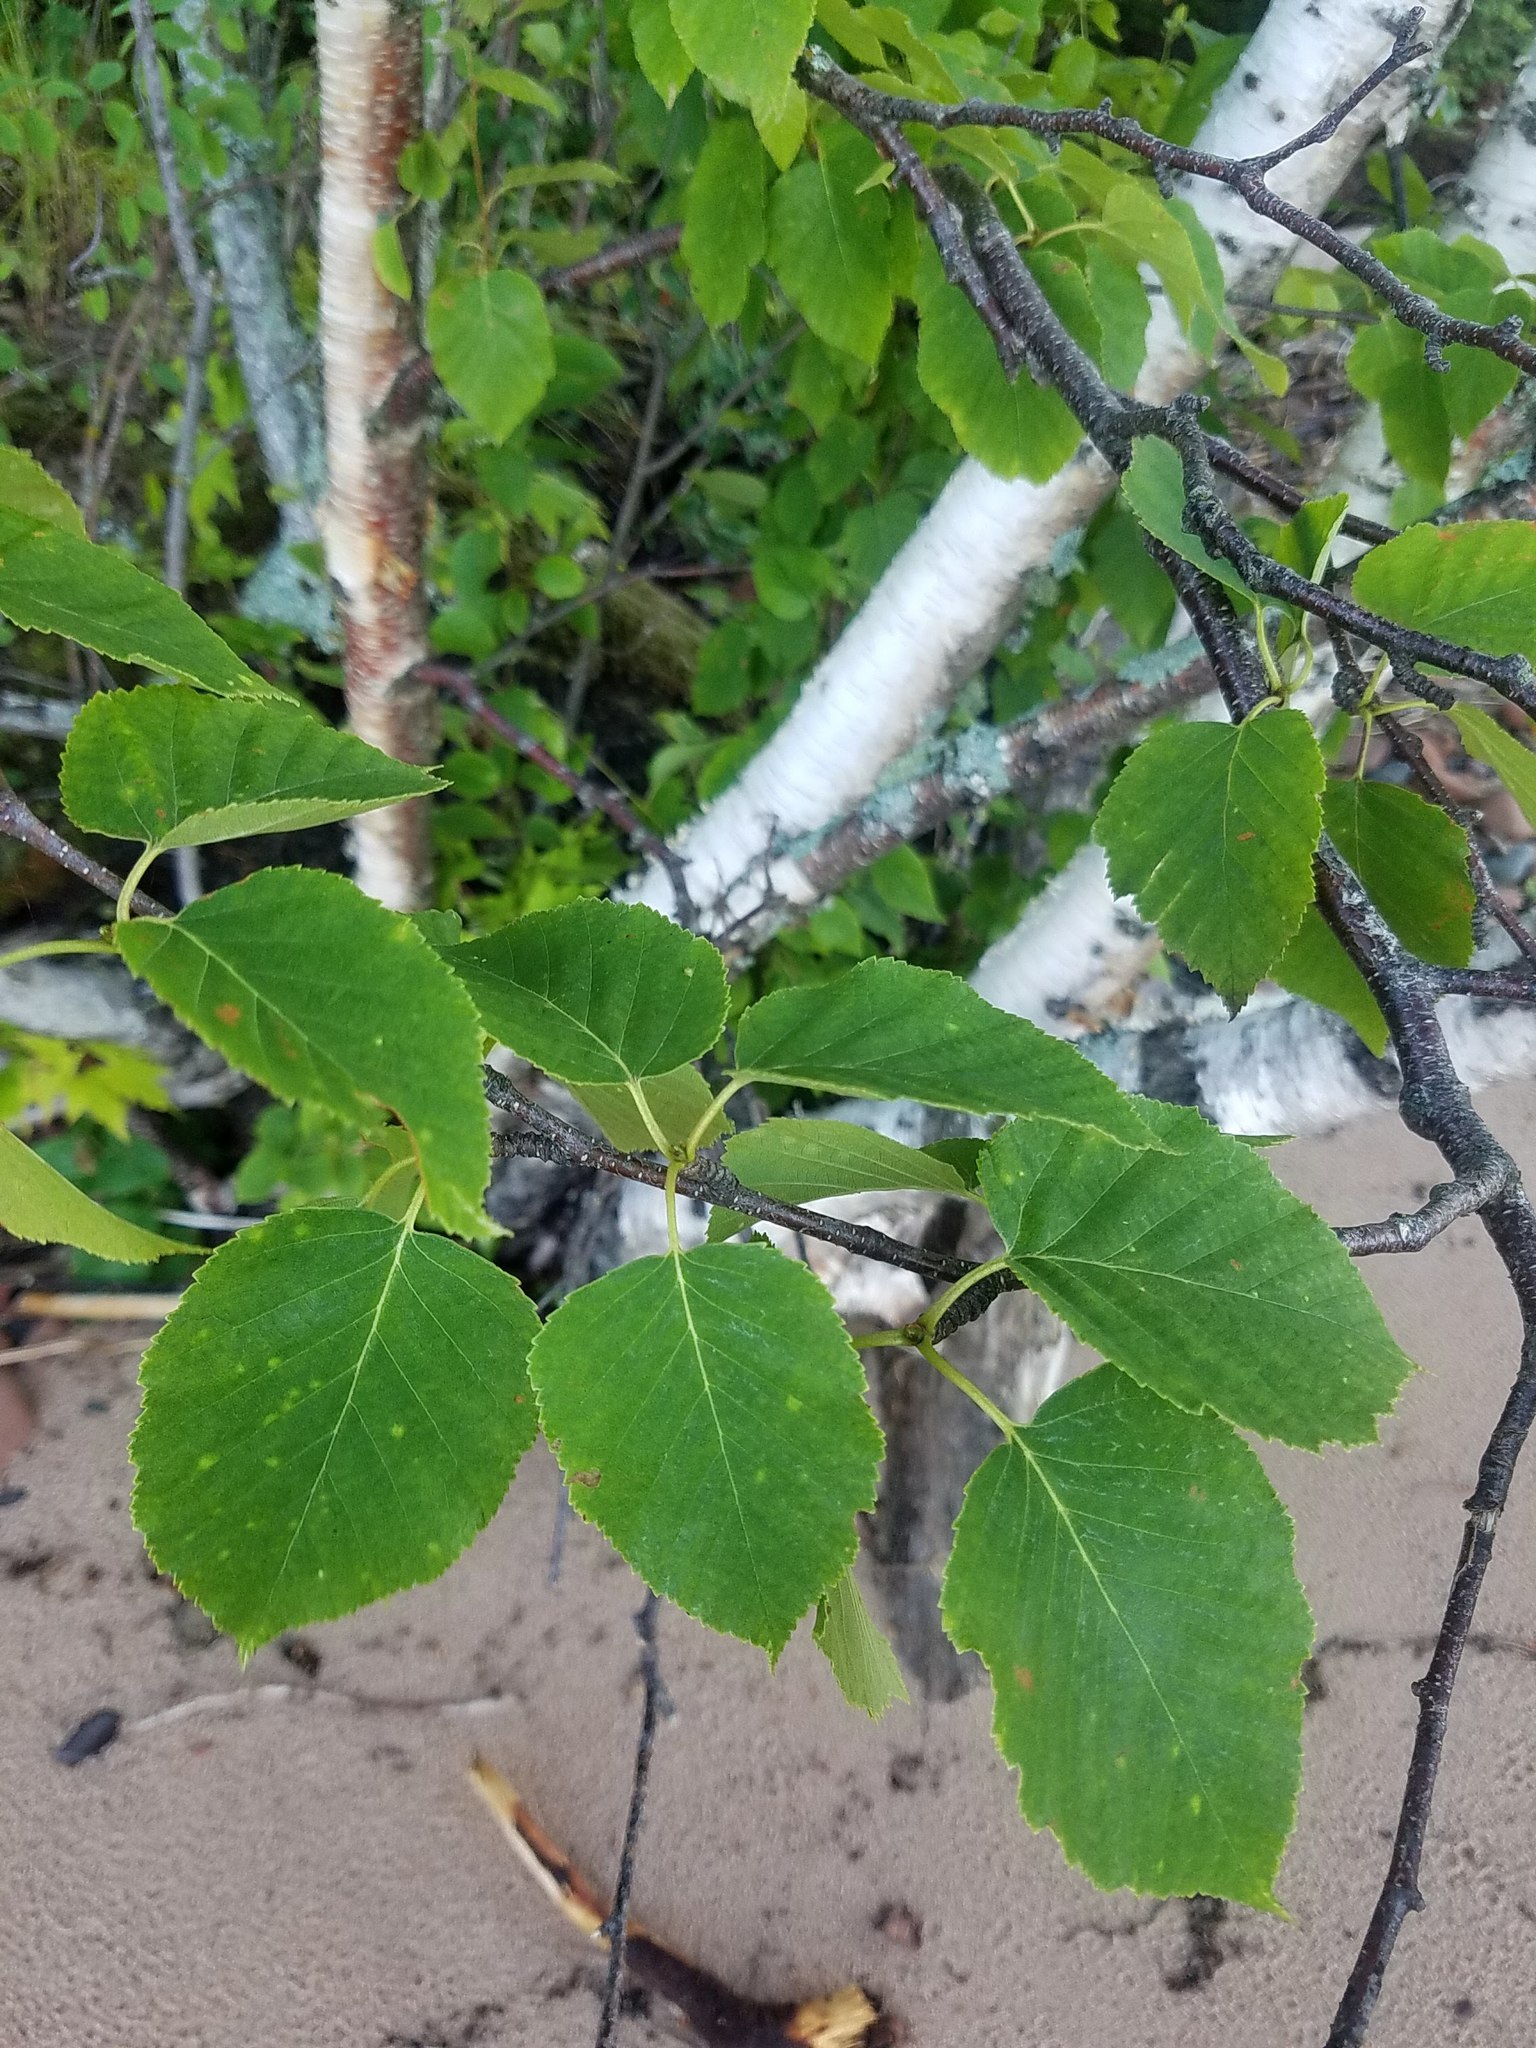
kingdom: Plantae
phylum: Tracheophyta
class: Magnoliopsida
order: Fagales
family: Betulaceae
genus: Betula
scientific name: Betula papyrifera
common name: Paper birch
